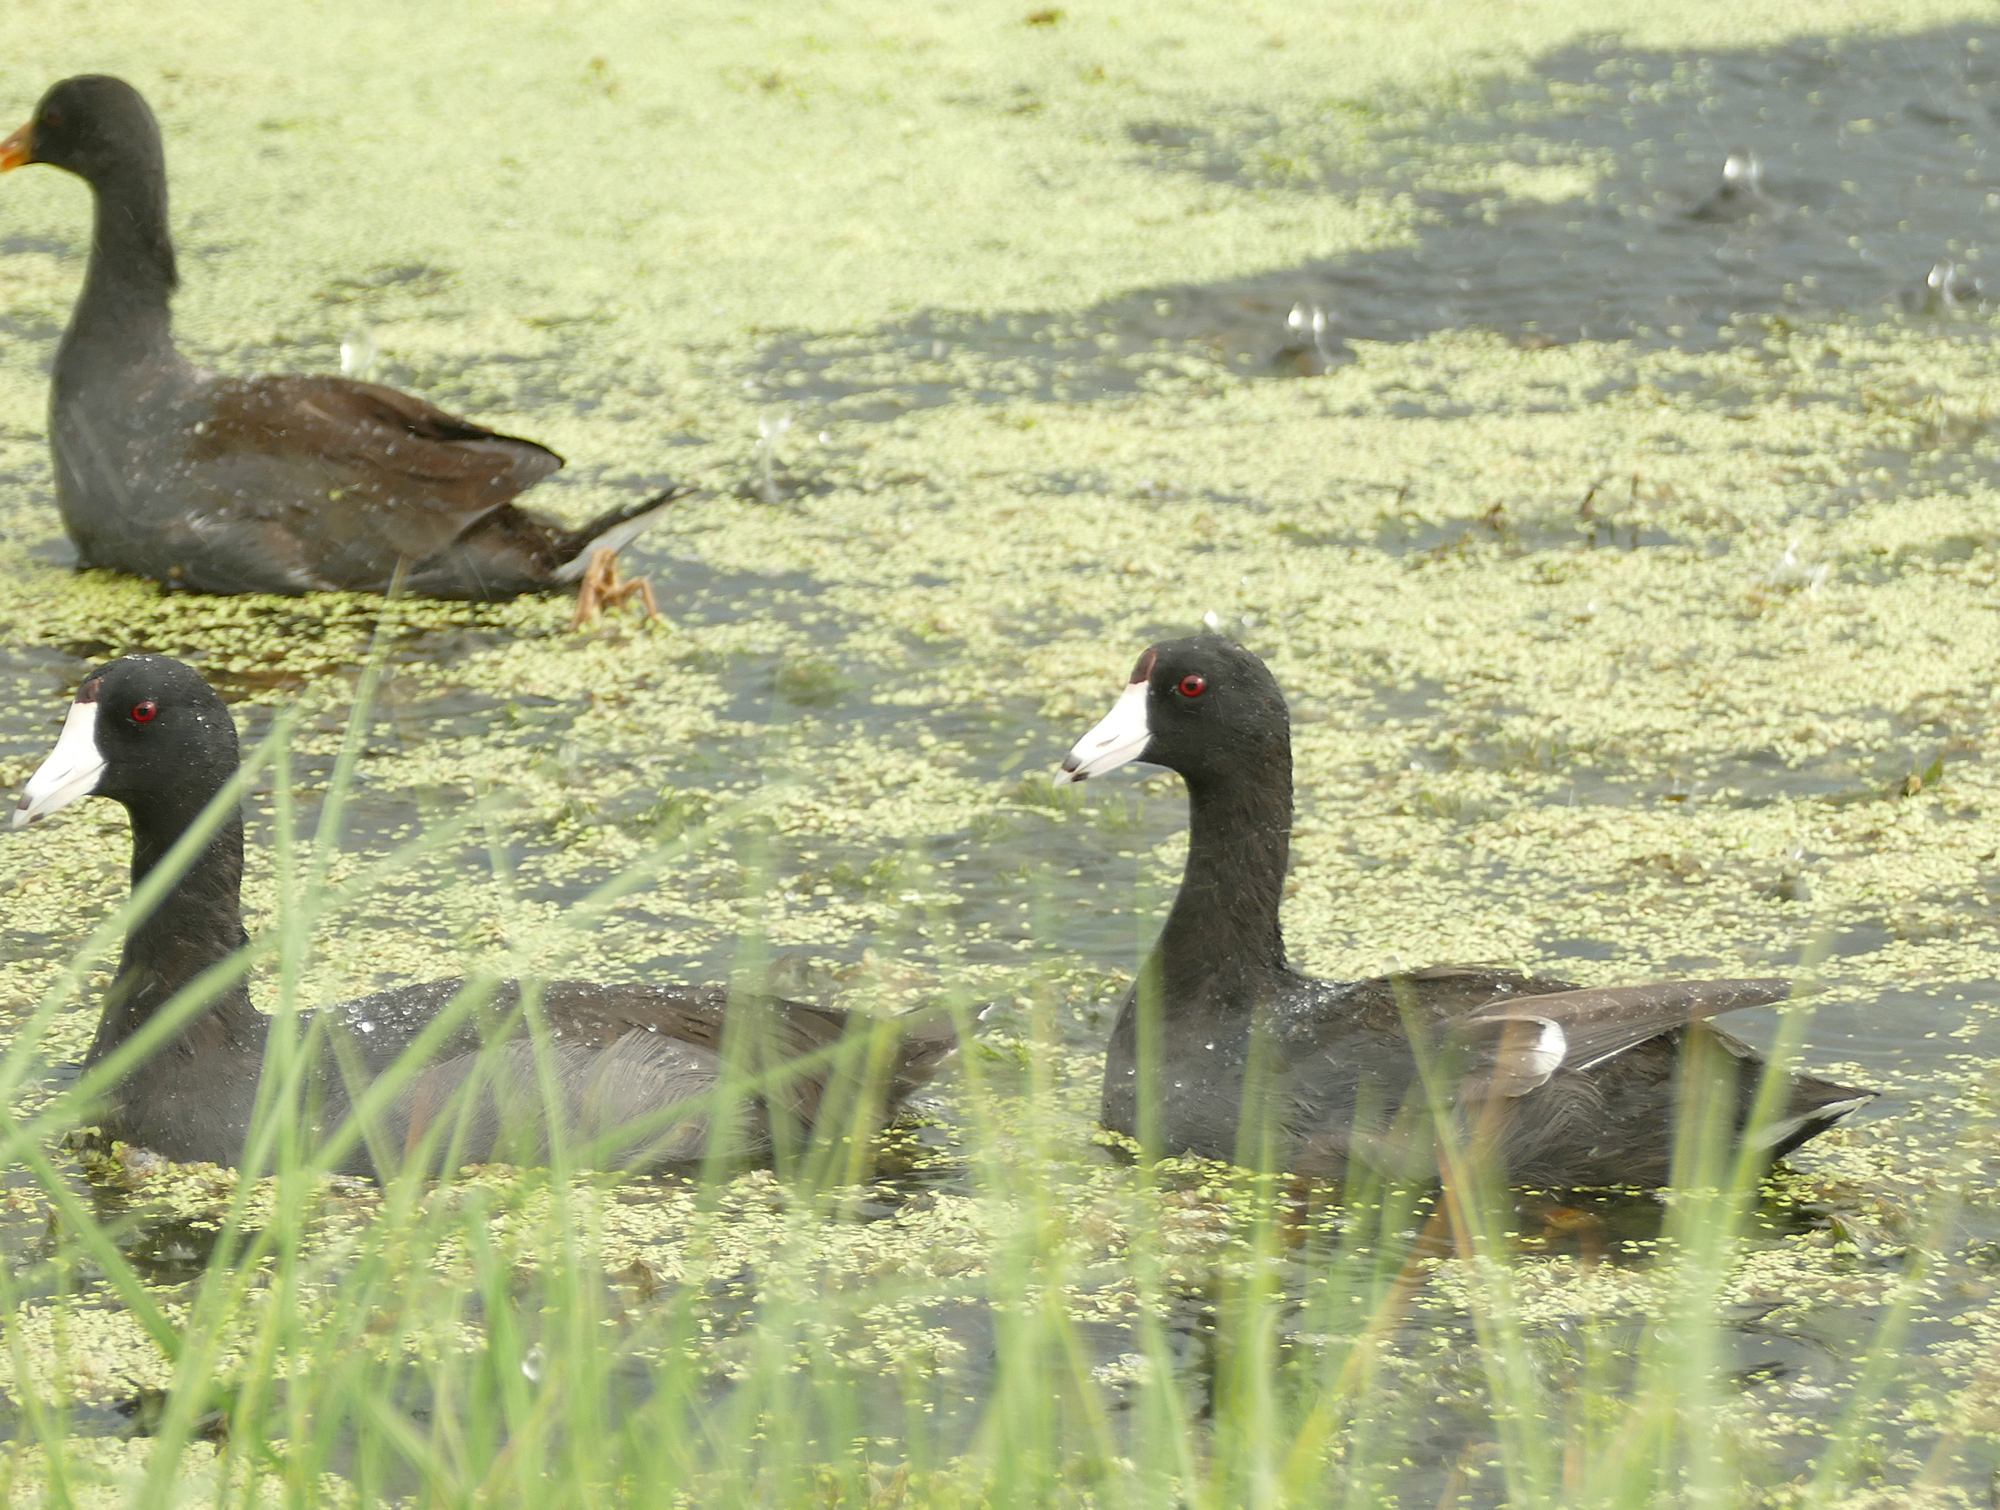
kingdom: Animalia
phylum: Chordata
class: Aves
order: Gruiformes
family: Rallidae
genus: Fulica
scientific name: Fulica americana
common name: American coot
